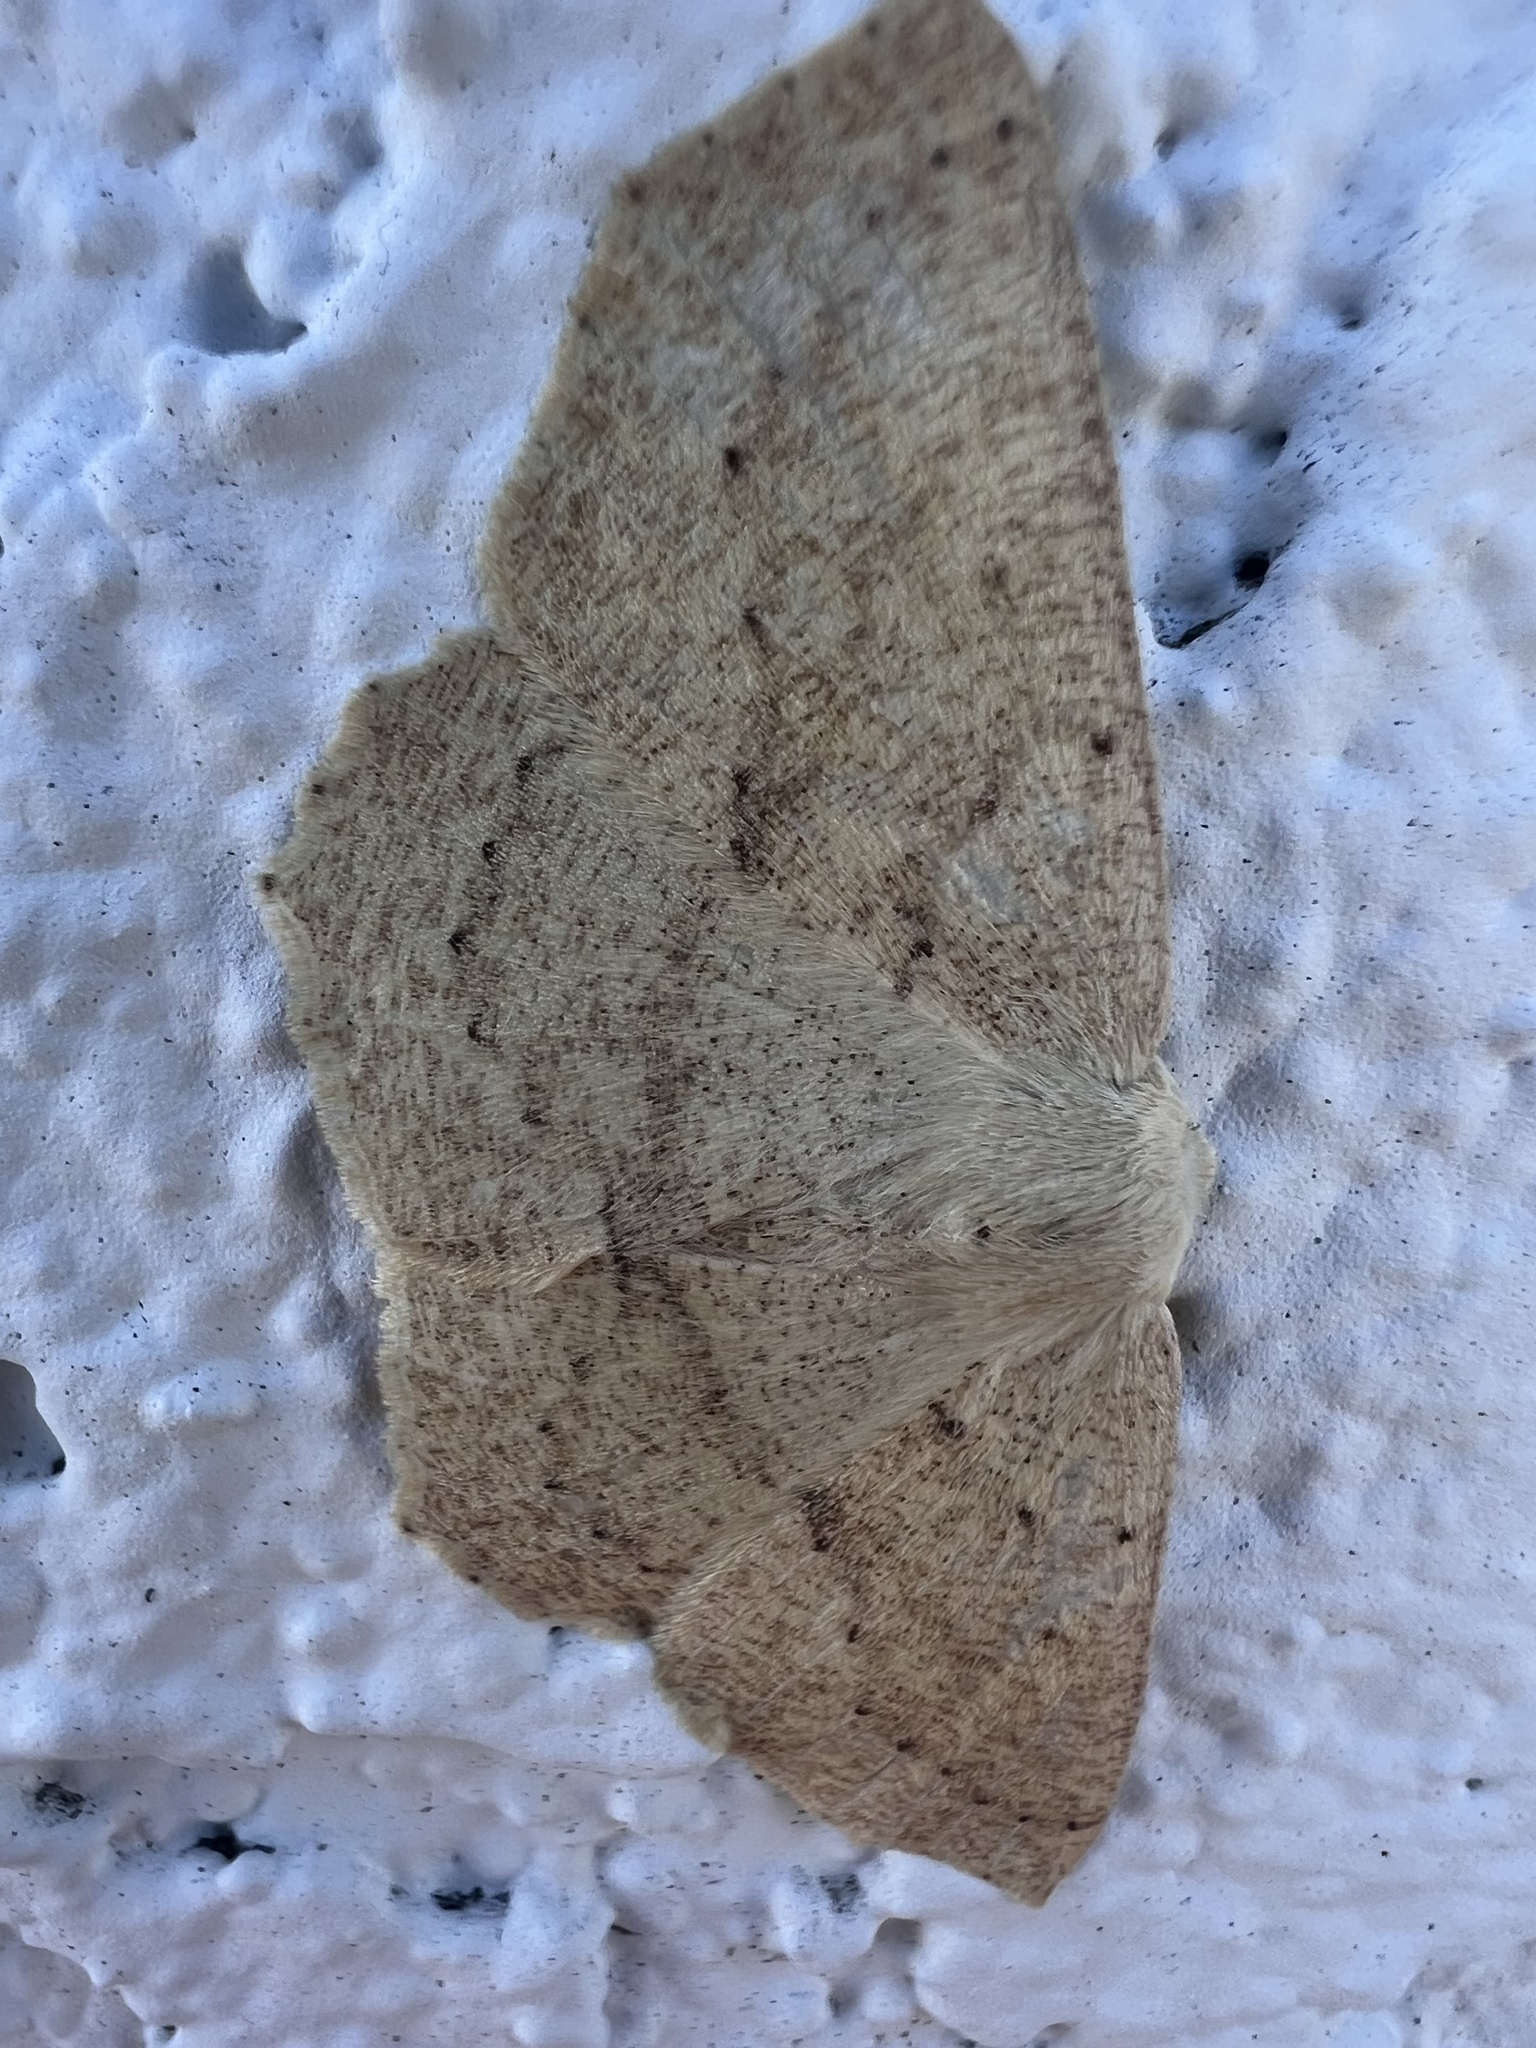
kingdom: Animalia
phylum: Arthropoda
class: Insecta
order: Lepidoptera
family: Geometridae
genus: Sabulodes
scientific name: Sabulodes aegrotata
